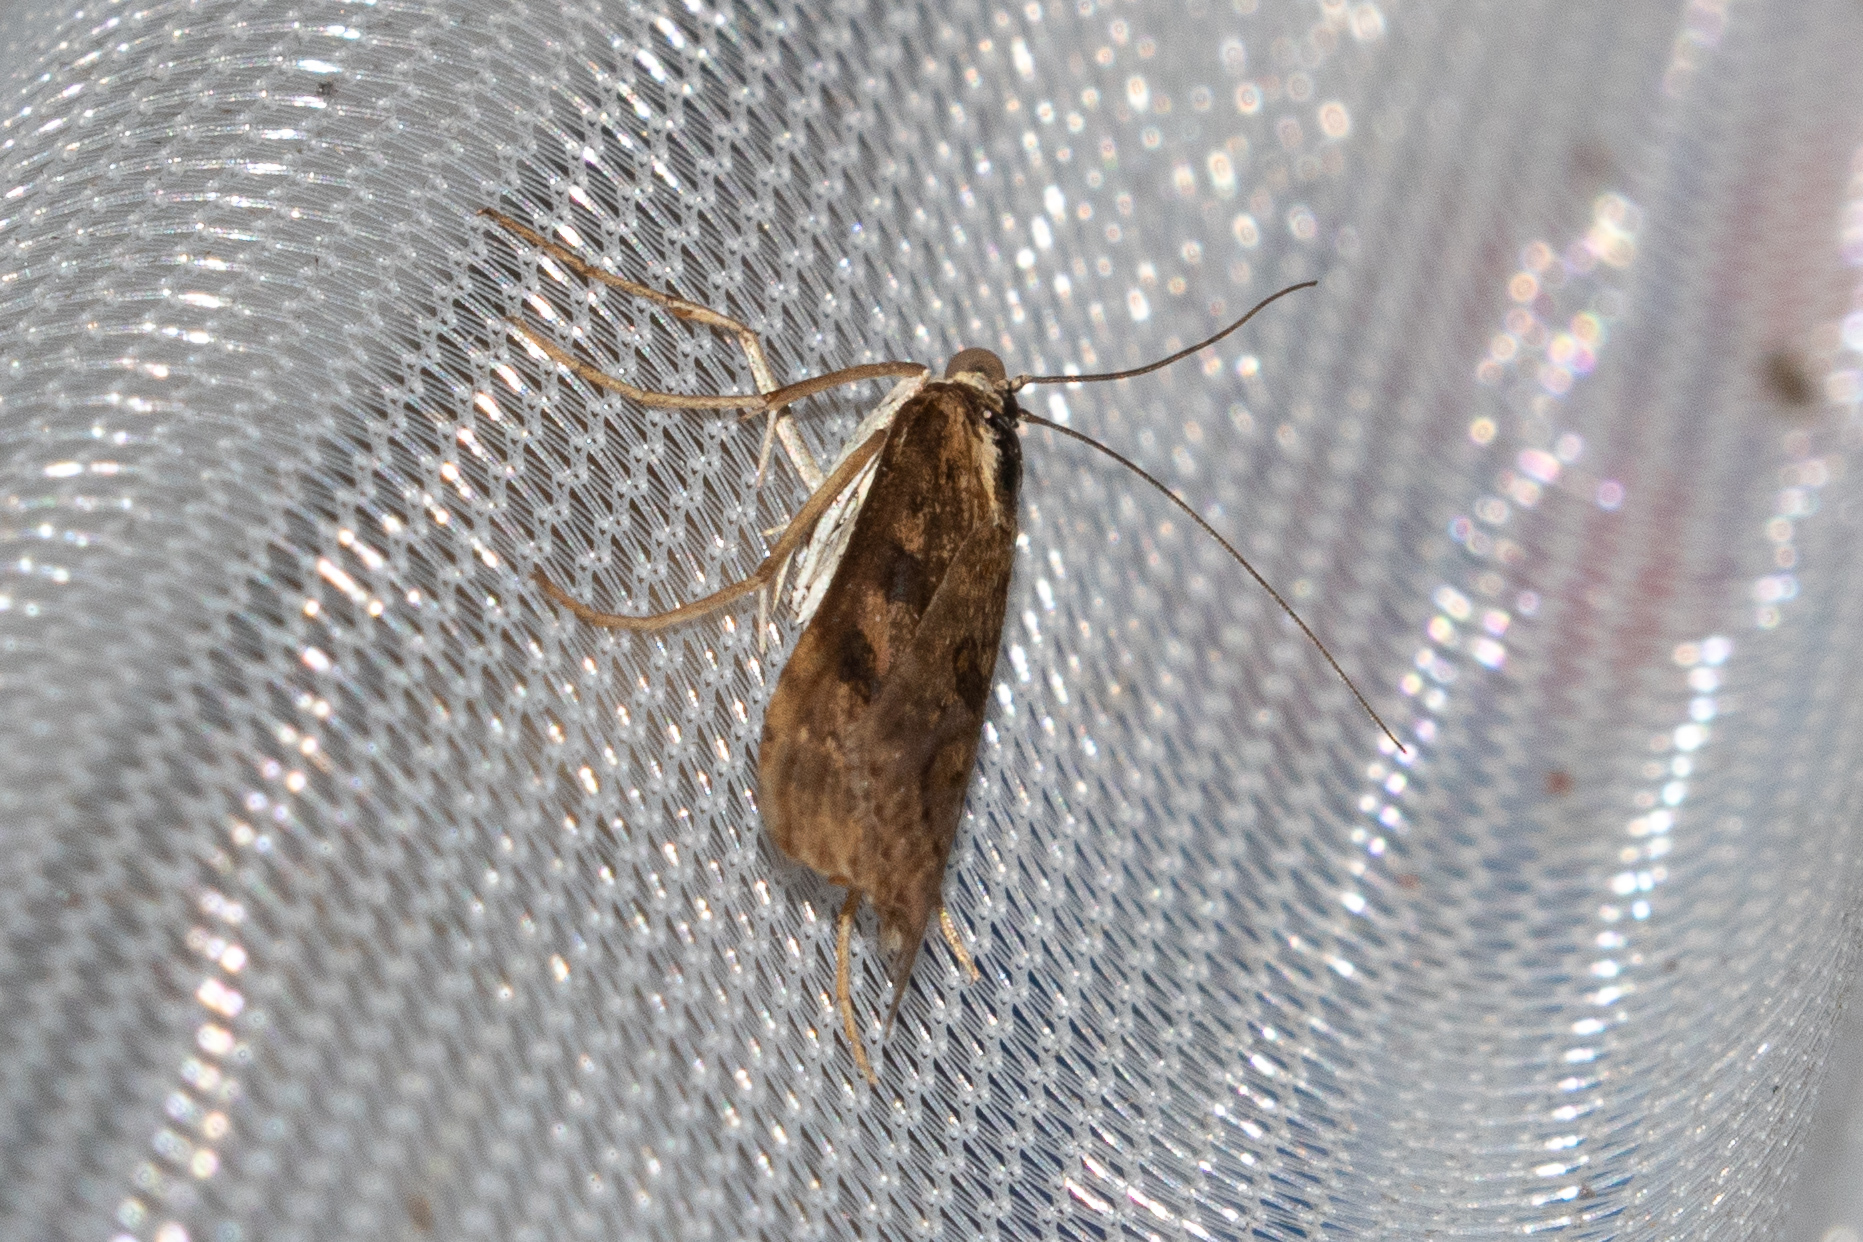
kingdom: Animalia
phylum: Arthropoda
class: Insecta
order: Lepidoptera
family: Crambidae
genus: Nomophila
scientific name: Nomophila nearctica
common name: American rush veneer
